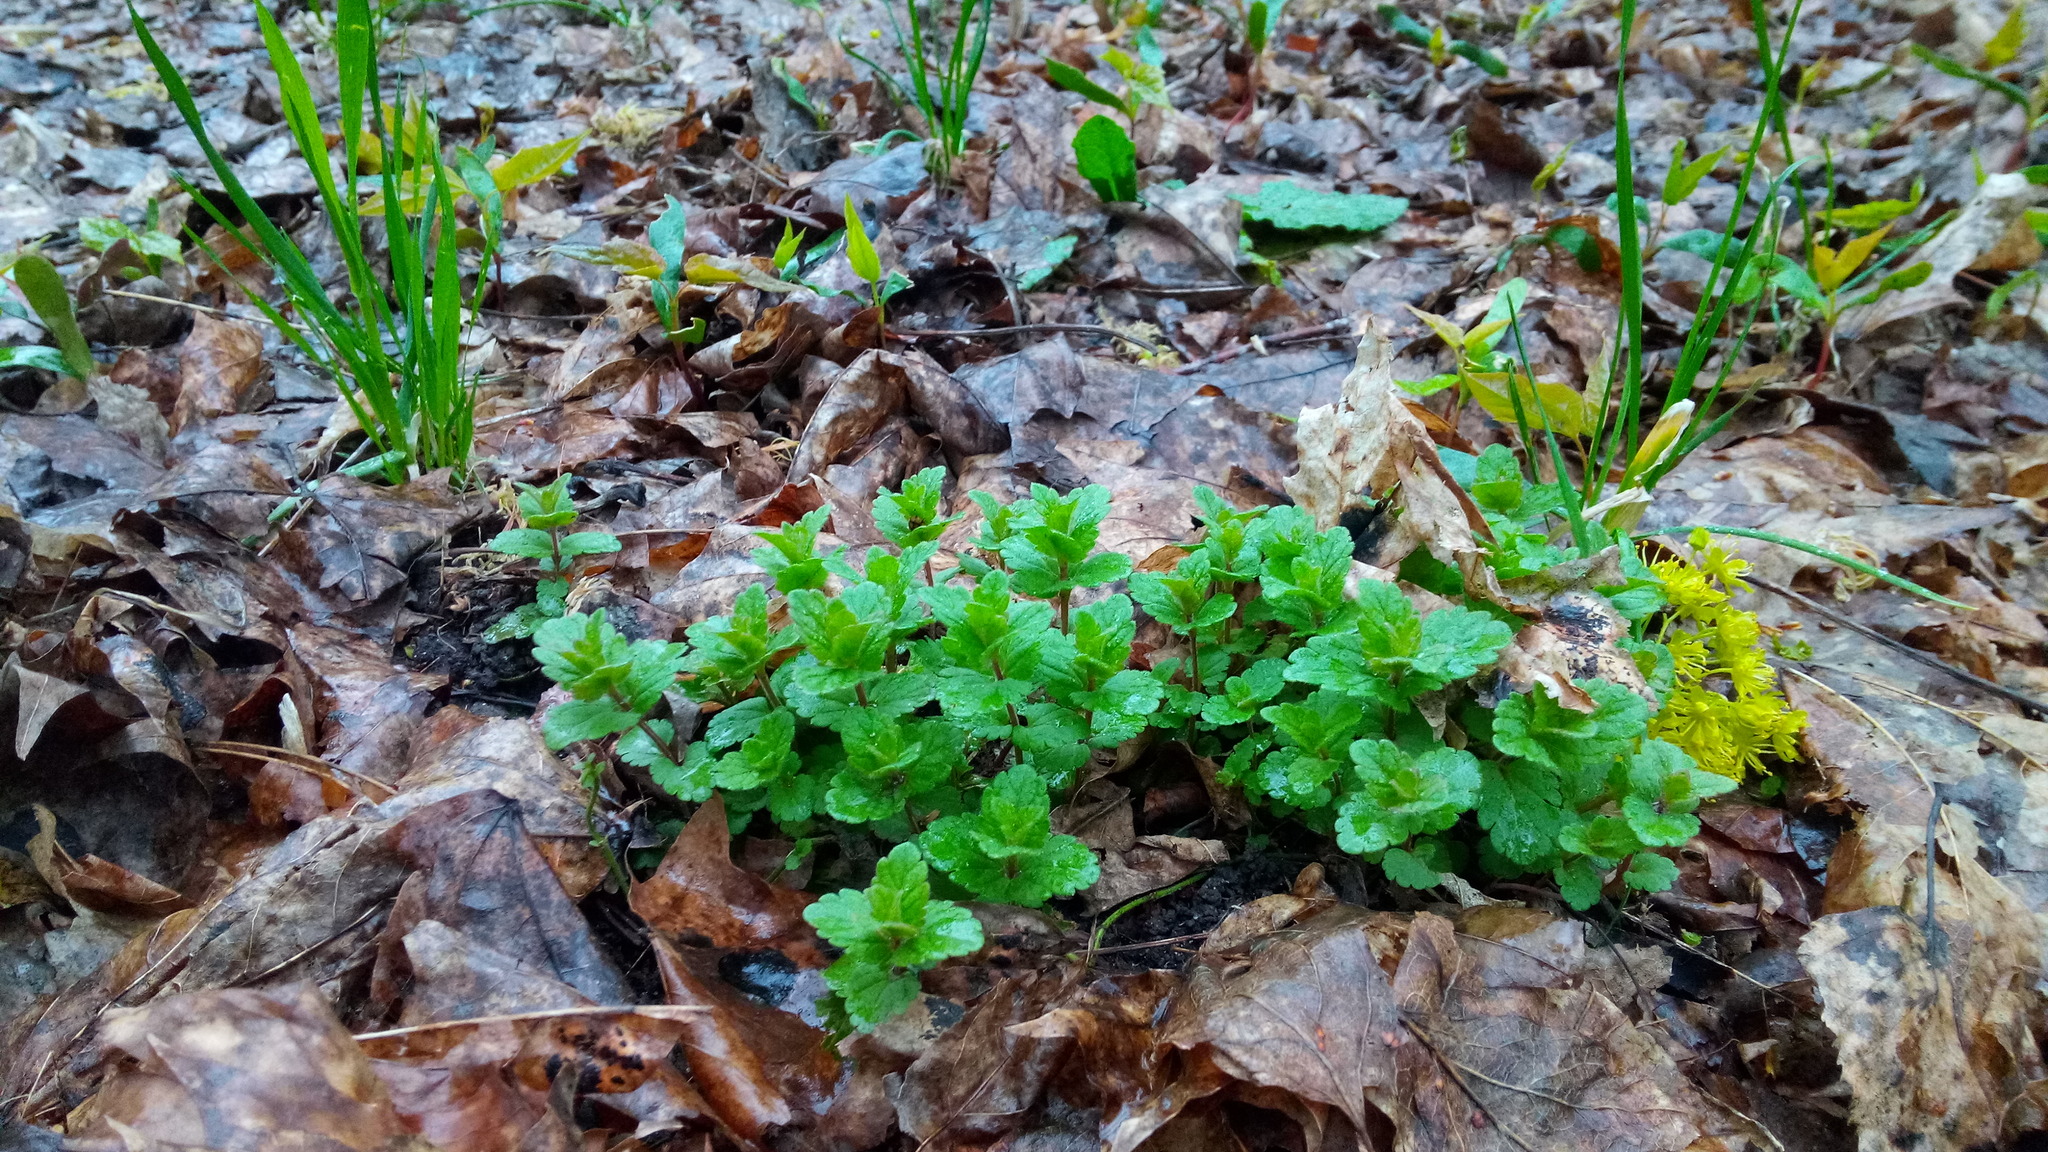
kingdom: Plantae
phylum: Tracheophyta
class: Magnoliopsida
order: Lamiales
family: Plantaginaceae
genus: Veronica
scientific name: Veronica chamaedrys
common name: Germander speedwell
